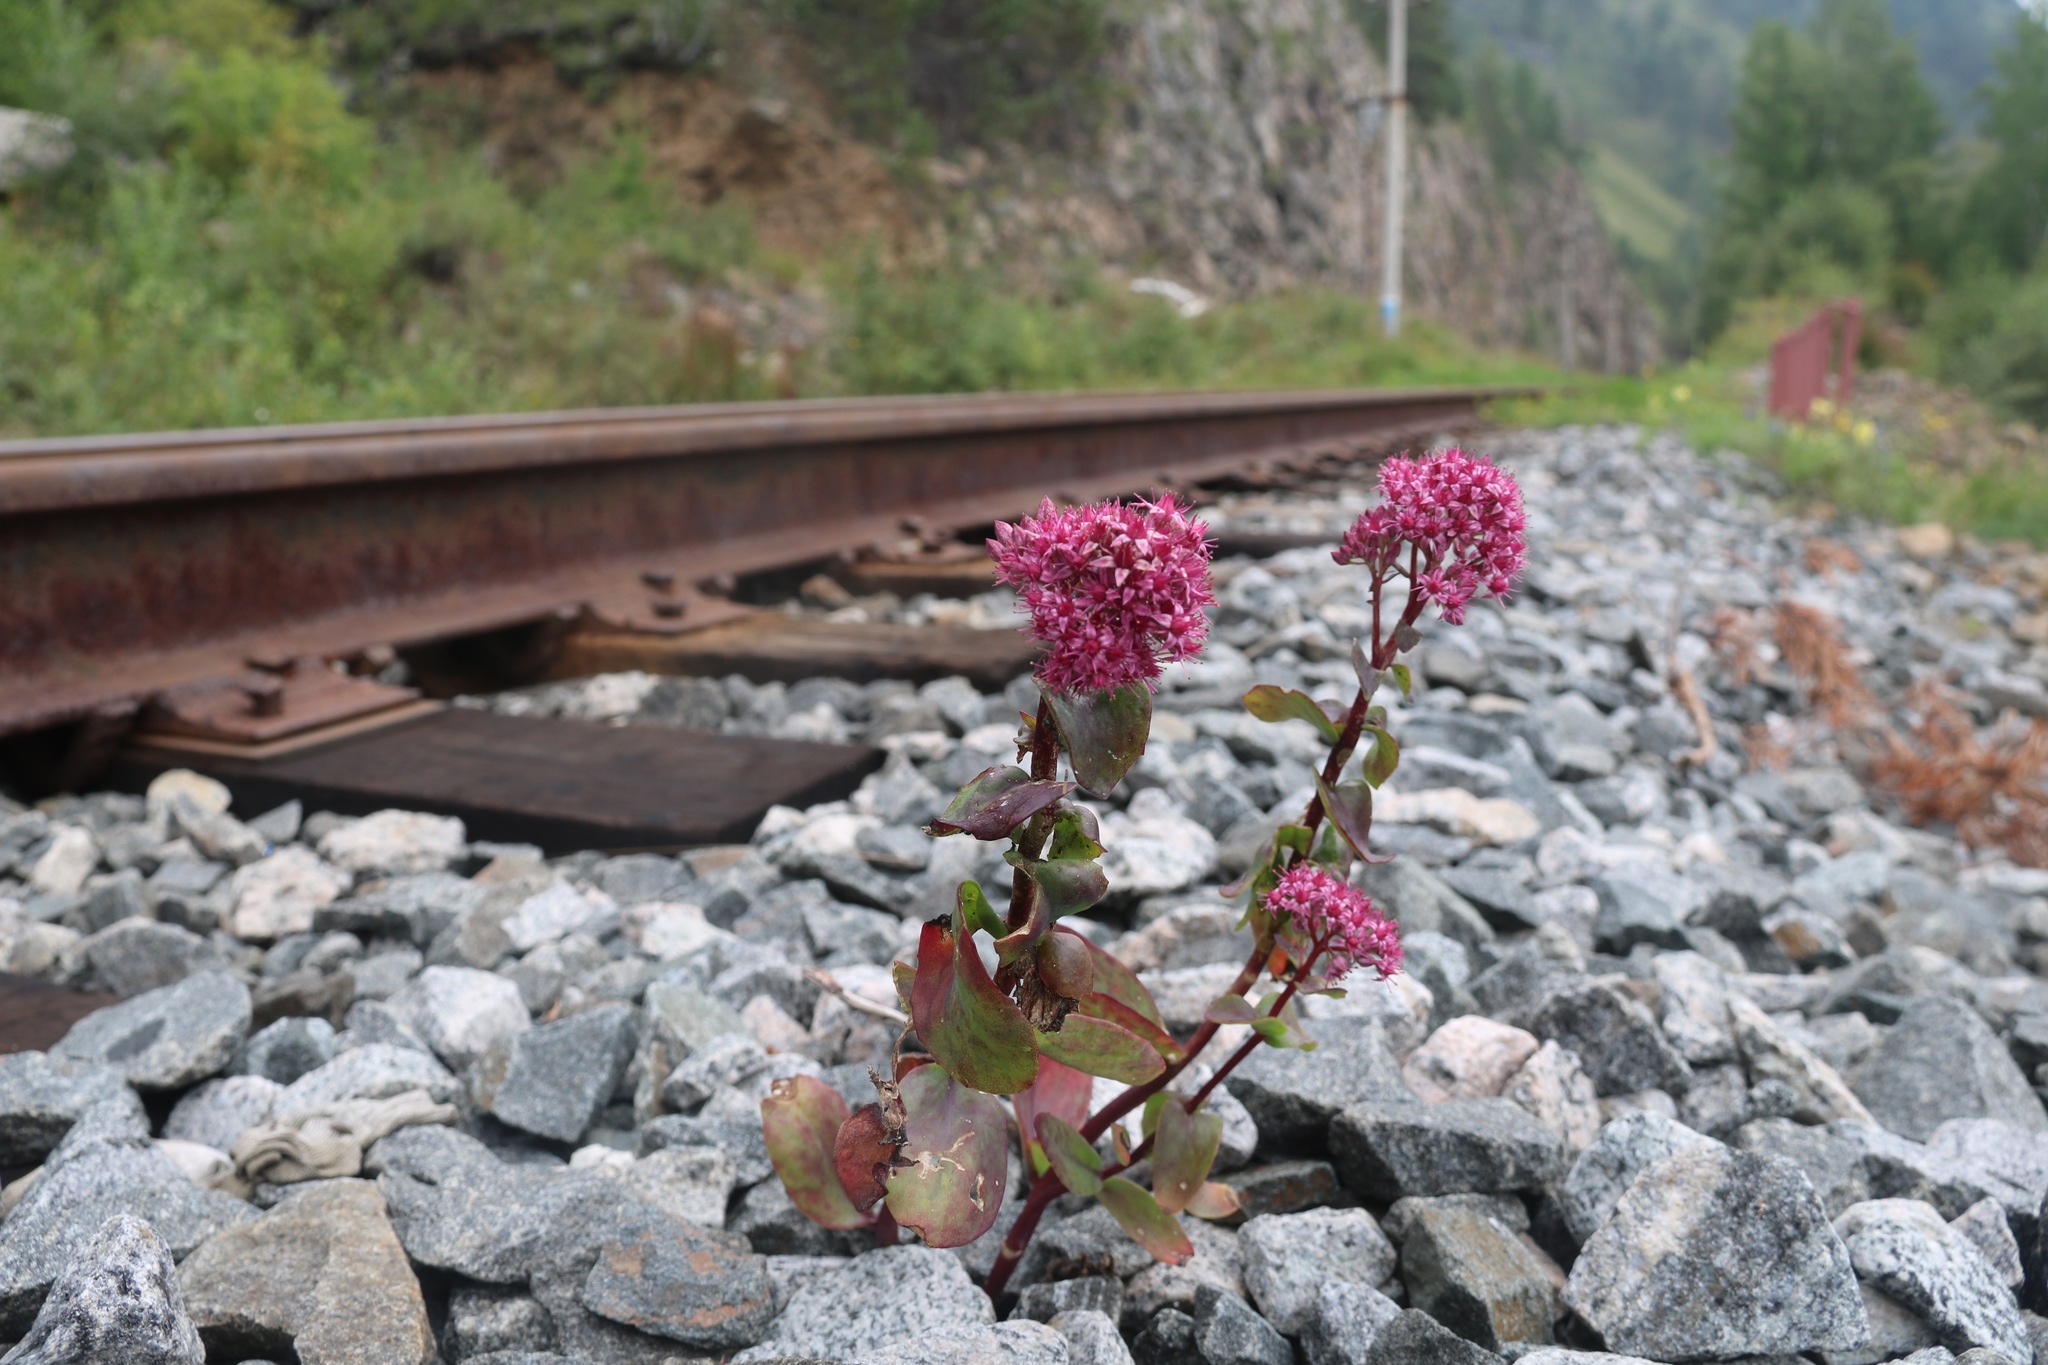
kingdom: Plantae
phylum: Tracheophyta
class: Magnoliopsida
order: Saxifragales
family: Crassulaceae
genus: Hylotelephium
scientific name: Hylotelephium telephium
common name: Live-forever
